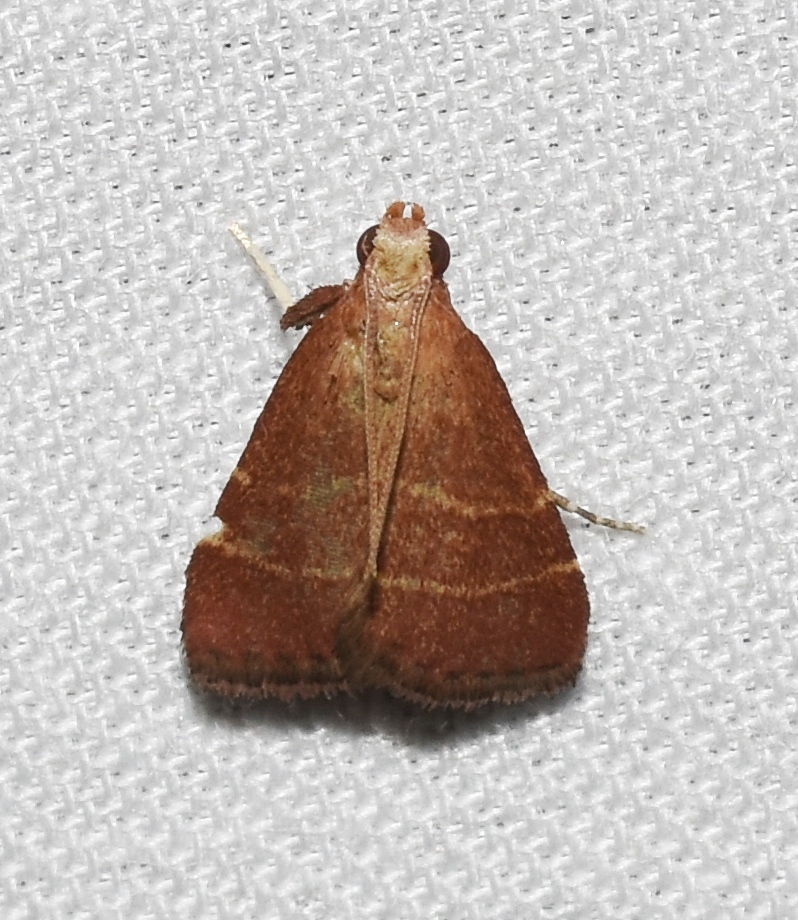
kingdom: Animalia
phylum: Arthropoda
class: Insecta
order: Lepidoptera
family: Pyralidae
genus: Arta
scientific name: Arta statalis
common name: Posturing arta moth
